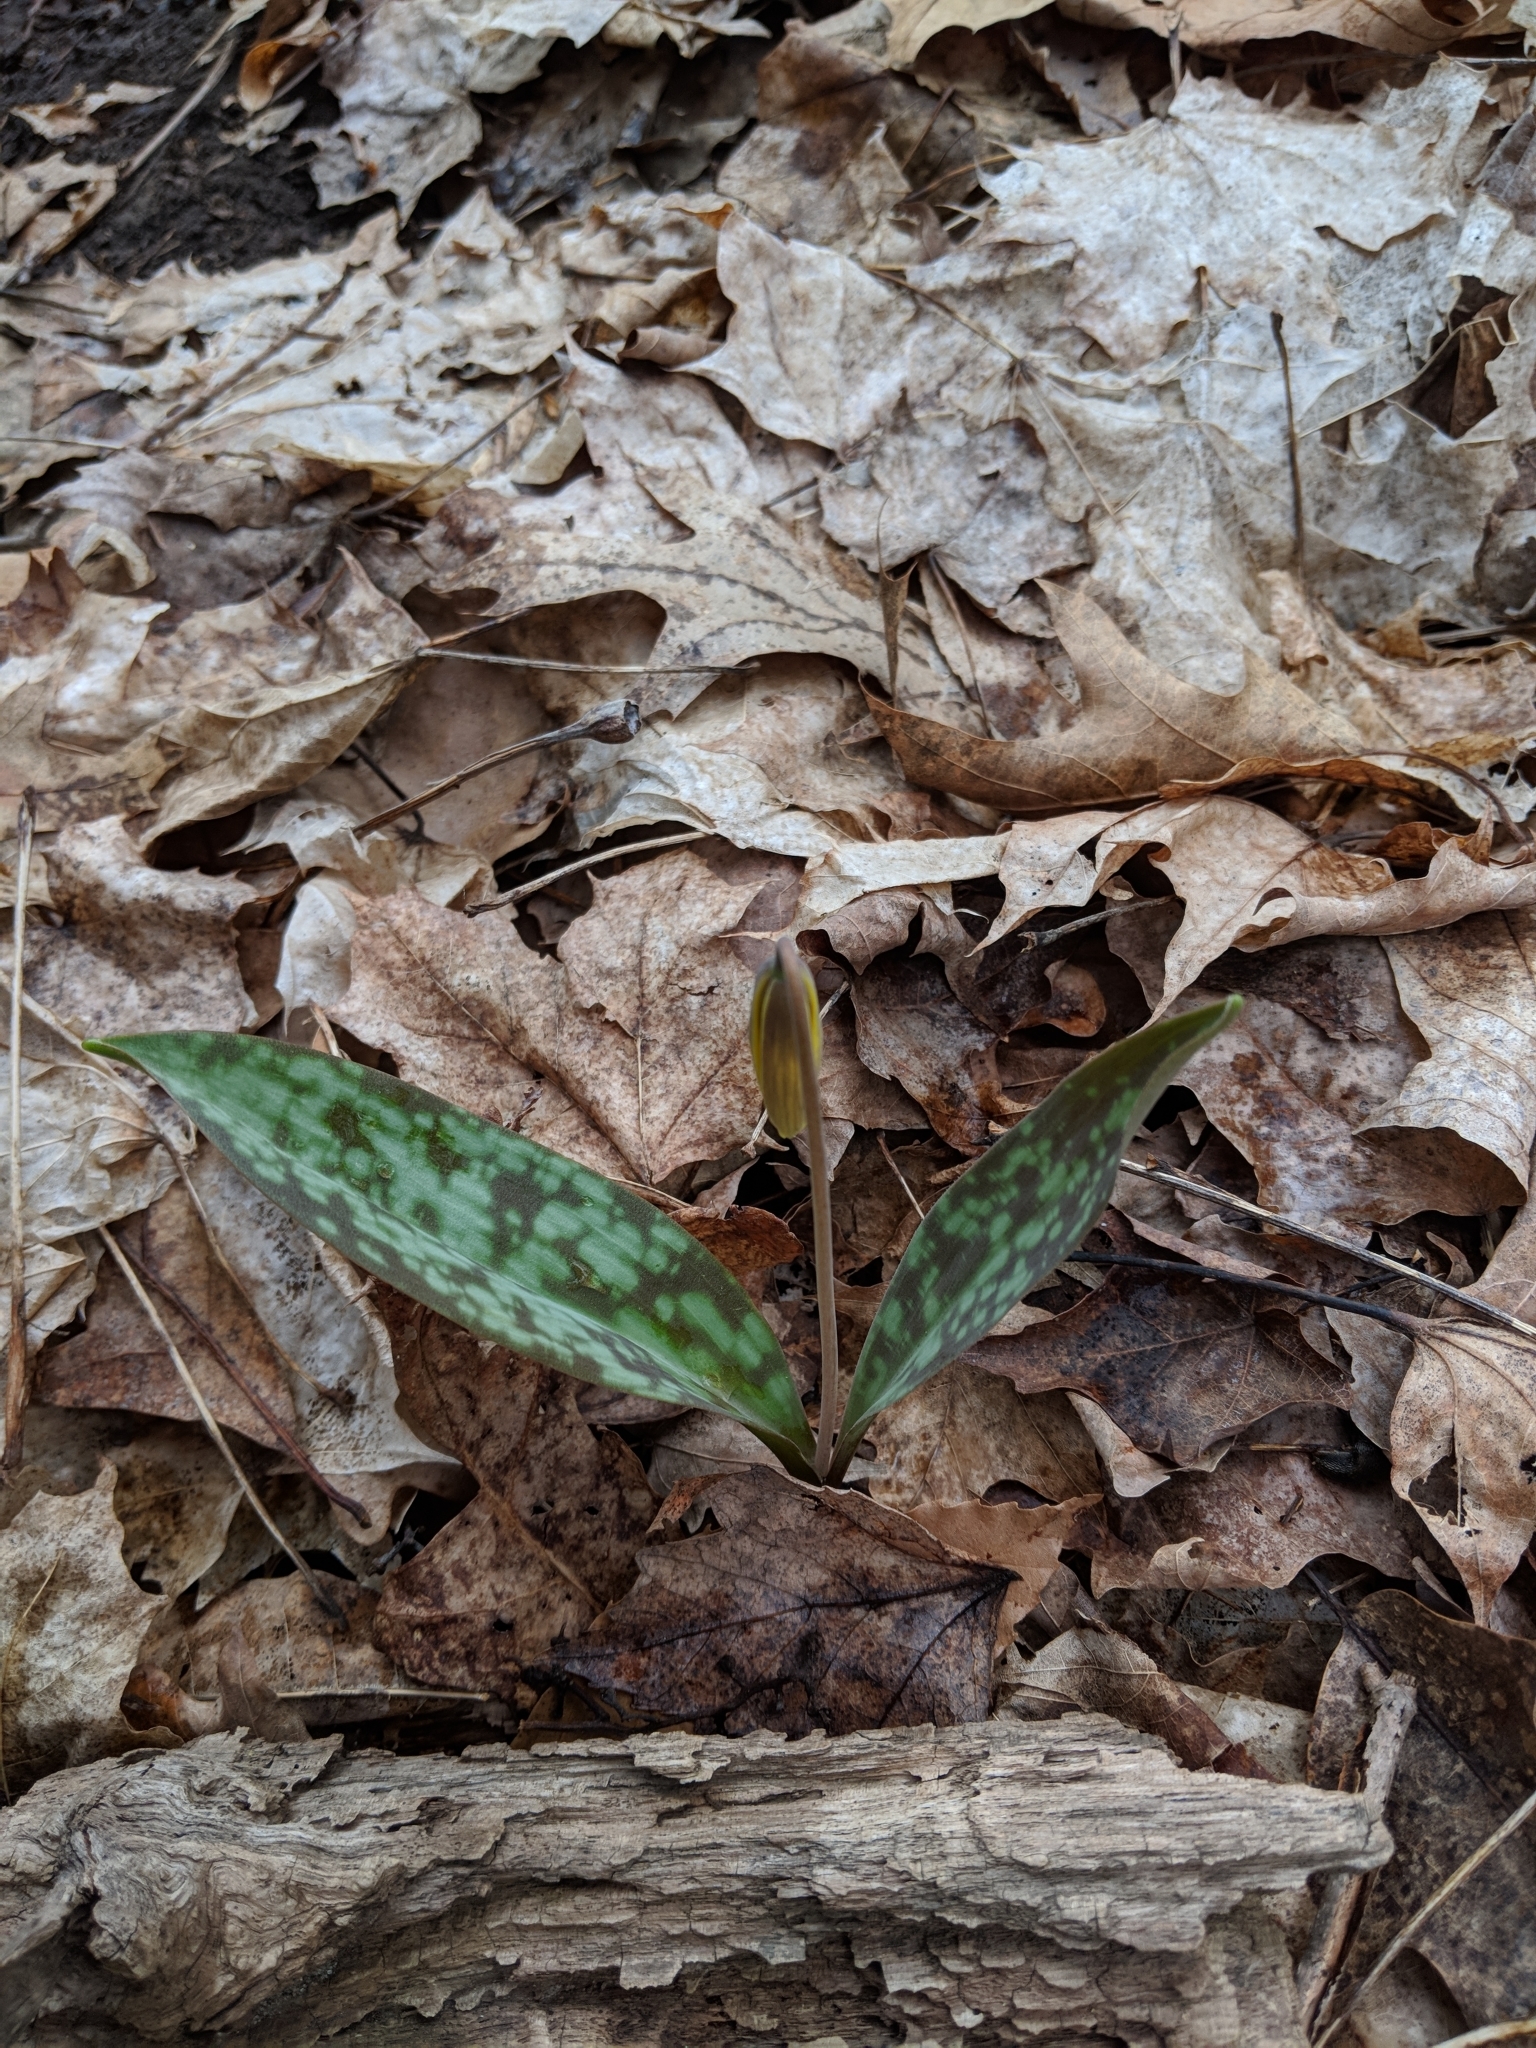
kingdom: Plantae
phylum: Tracheophyta
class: Liliopsida
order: Liliales
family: Liliaceae
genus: Erythronium
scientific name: Erythronium americanum
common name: Yellow adder's-tongue
